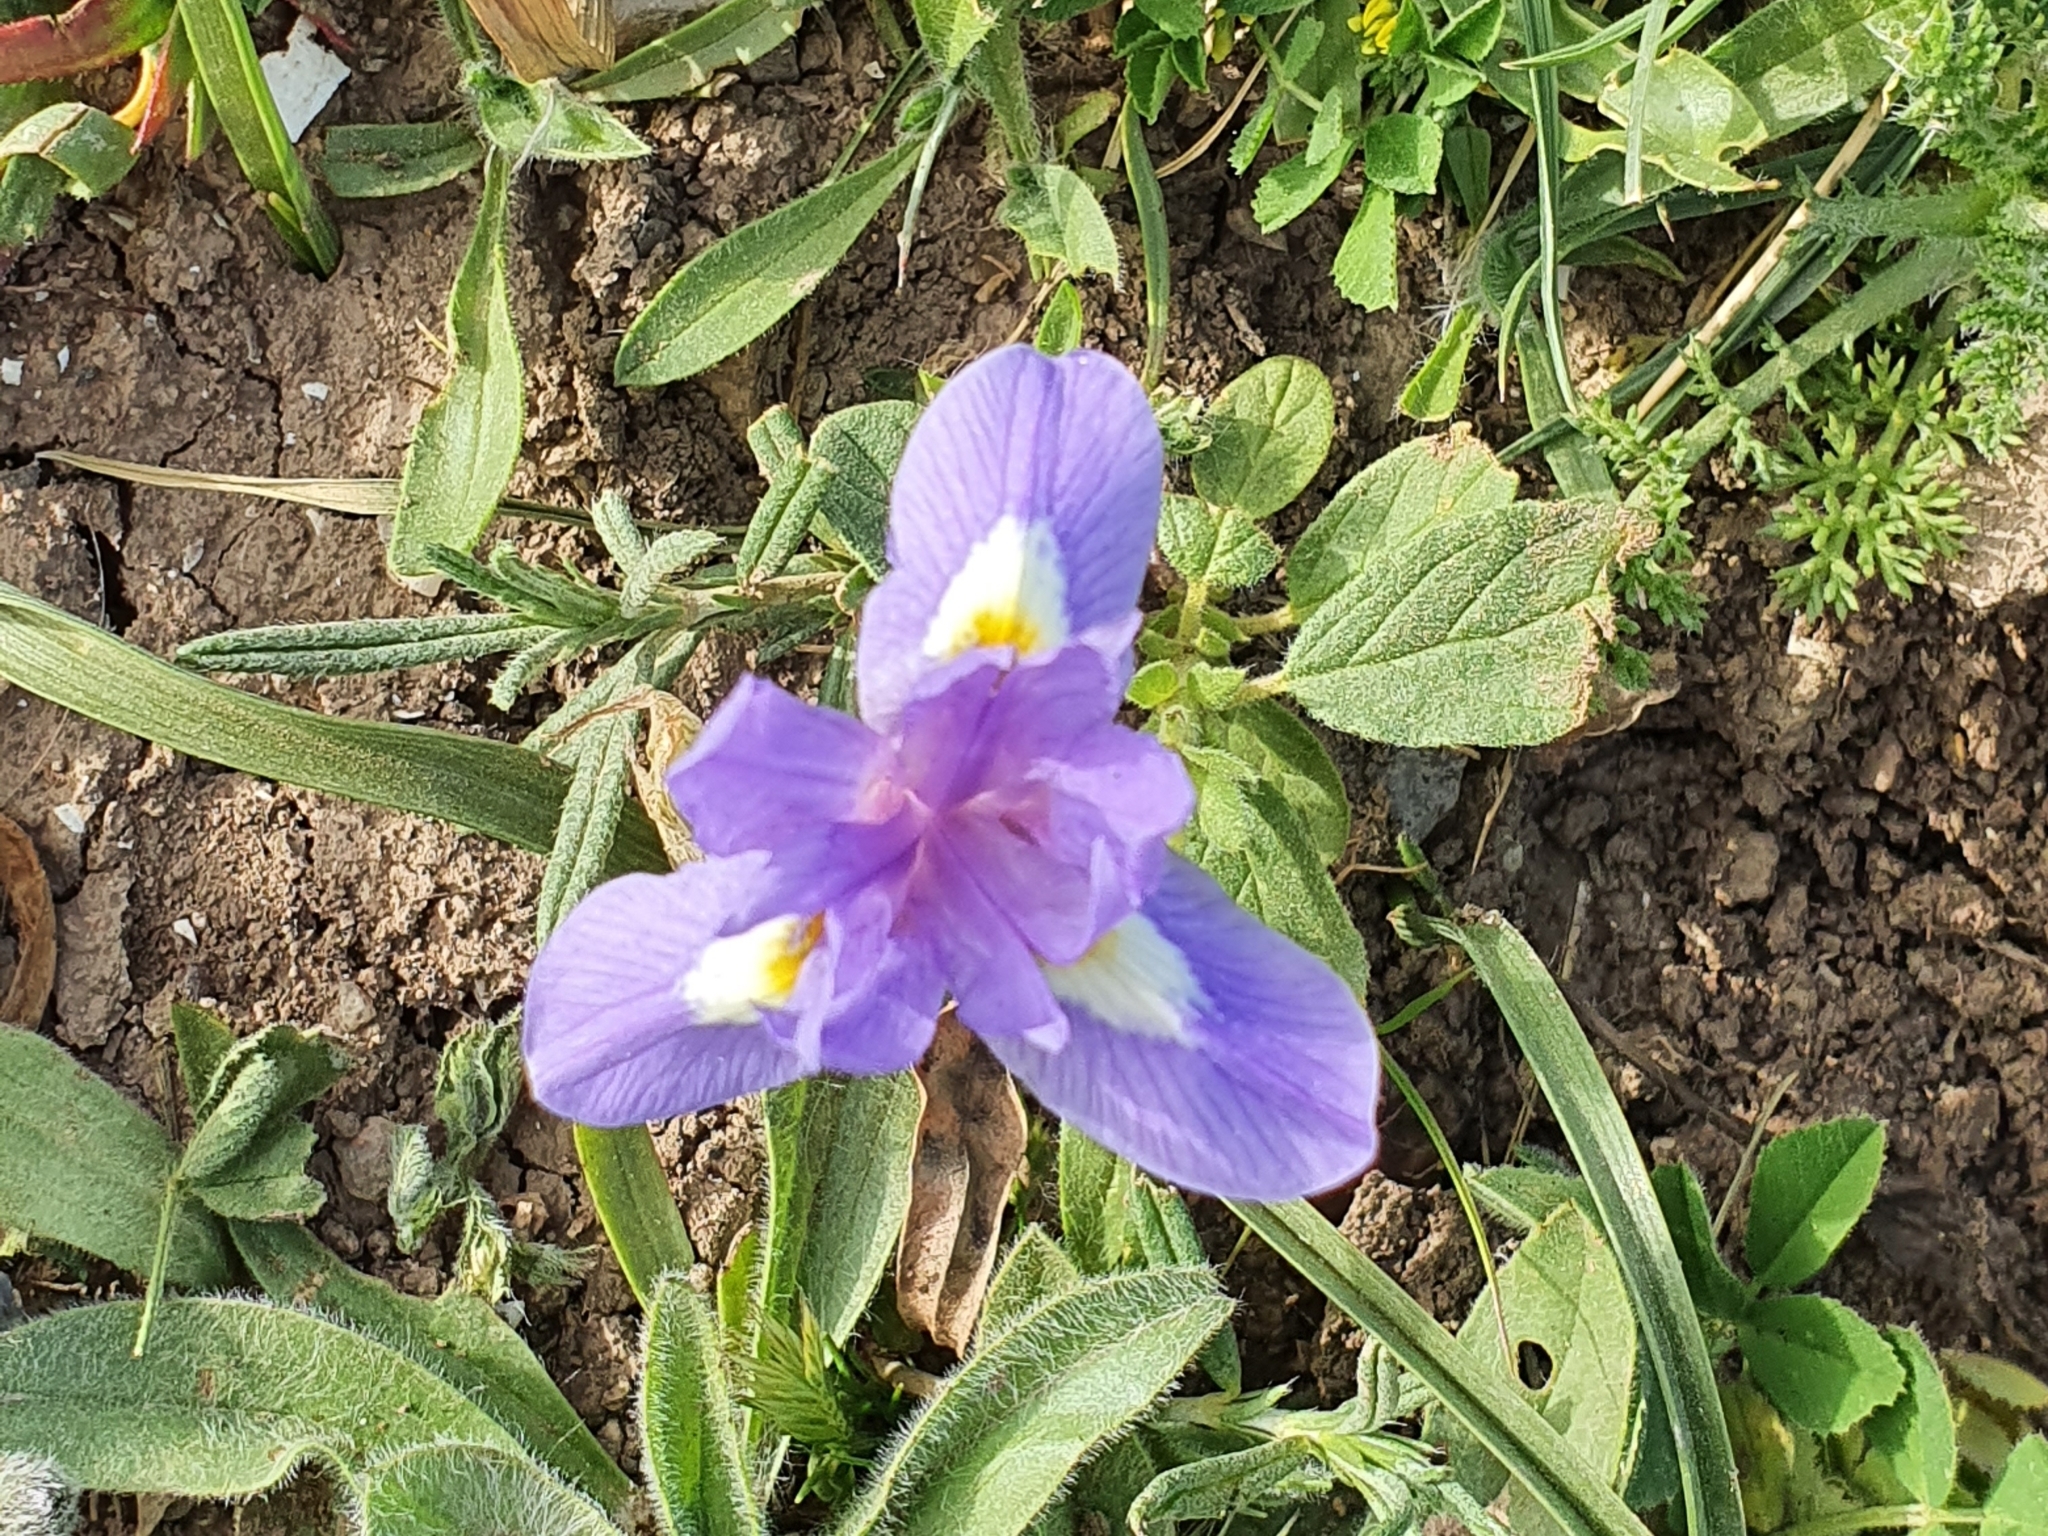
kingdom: Plantae
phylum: Tracheophyta
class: Liliopsida
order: Asparagales
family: Iridaceae
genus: Moraea
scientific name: Moraea sisyrinchium
